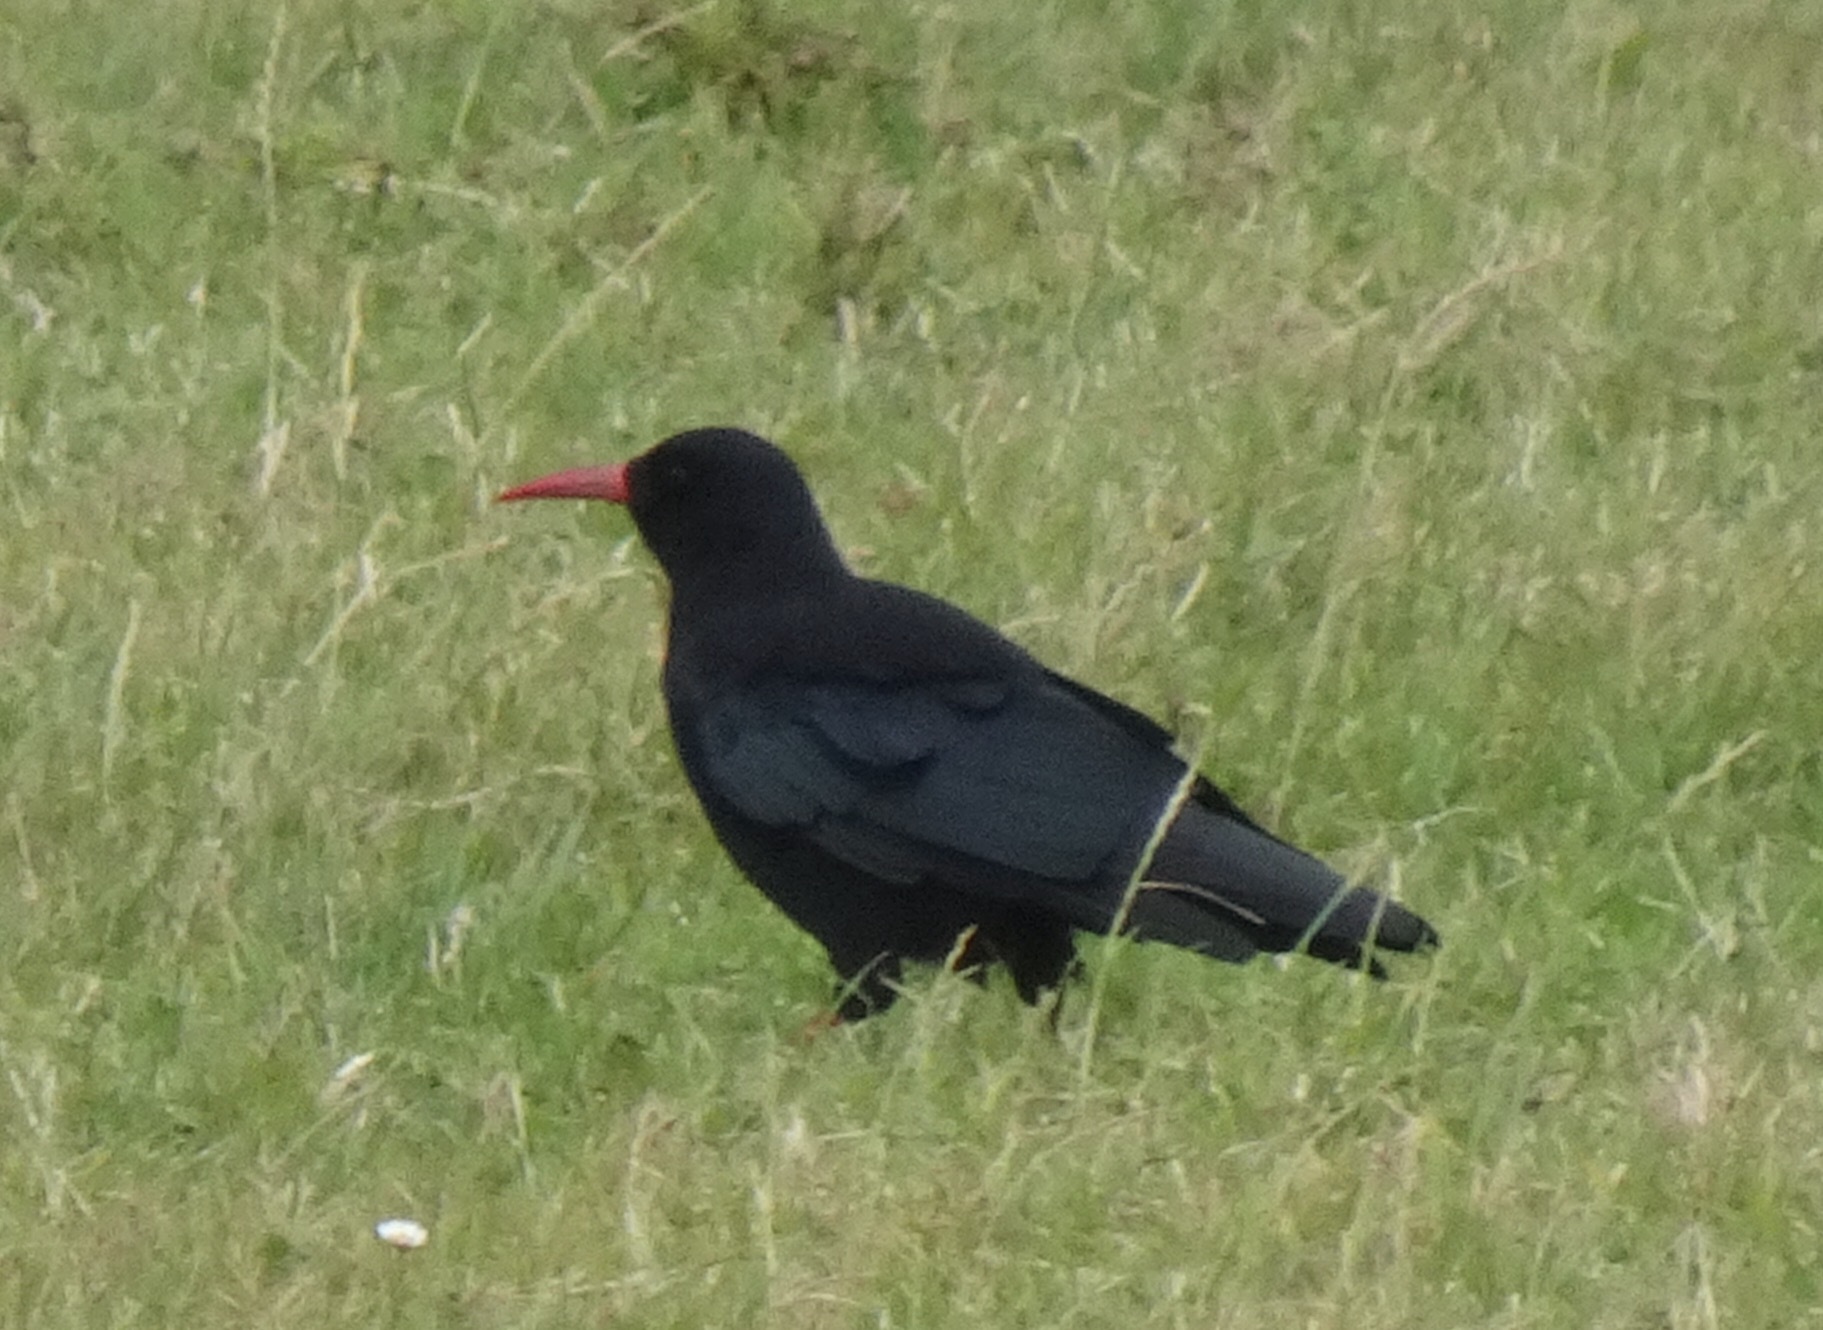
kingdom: Animalia
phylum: Chordata
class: Aves
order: Passeriformes
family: Corvidae
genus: Pyrrhocorax
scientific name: Pyrrhocorax pyrrhocorax
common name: Red-billed chough
